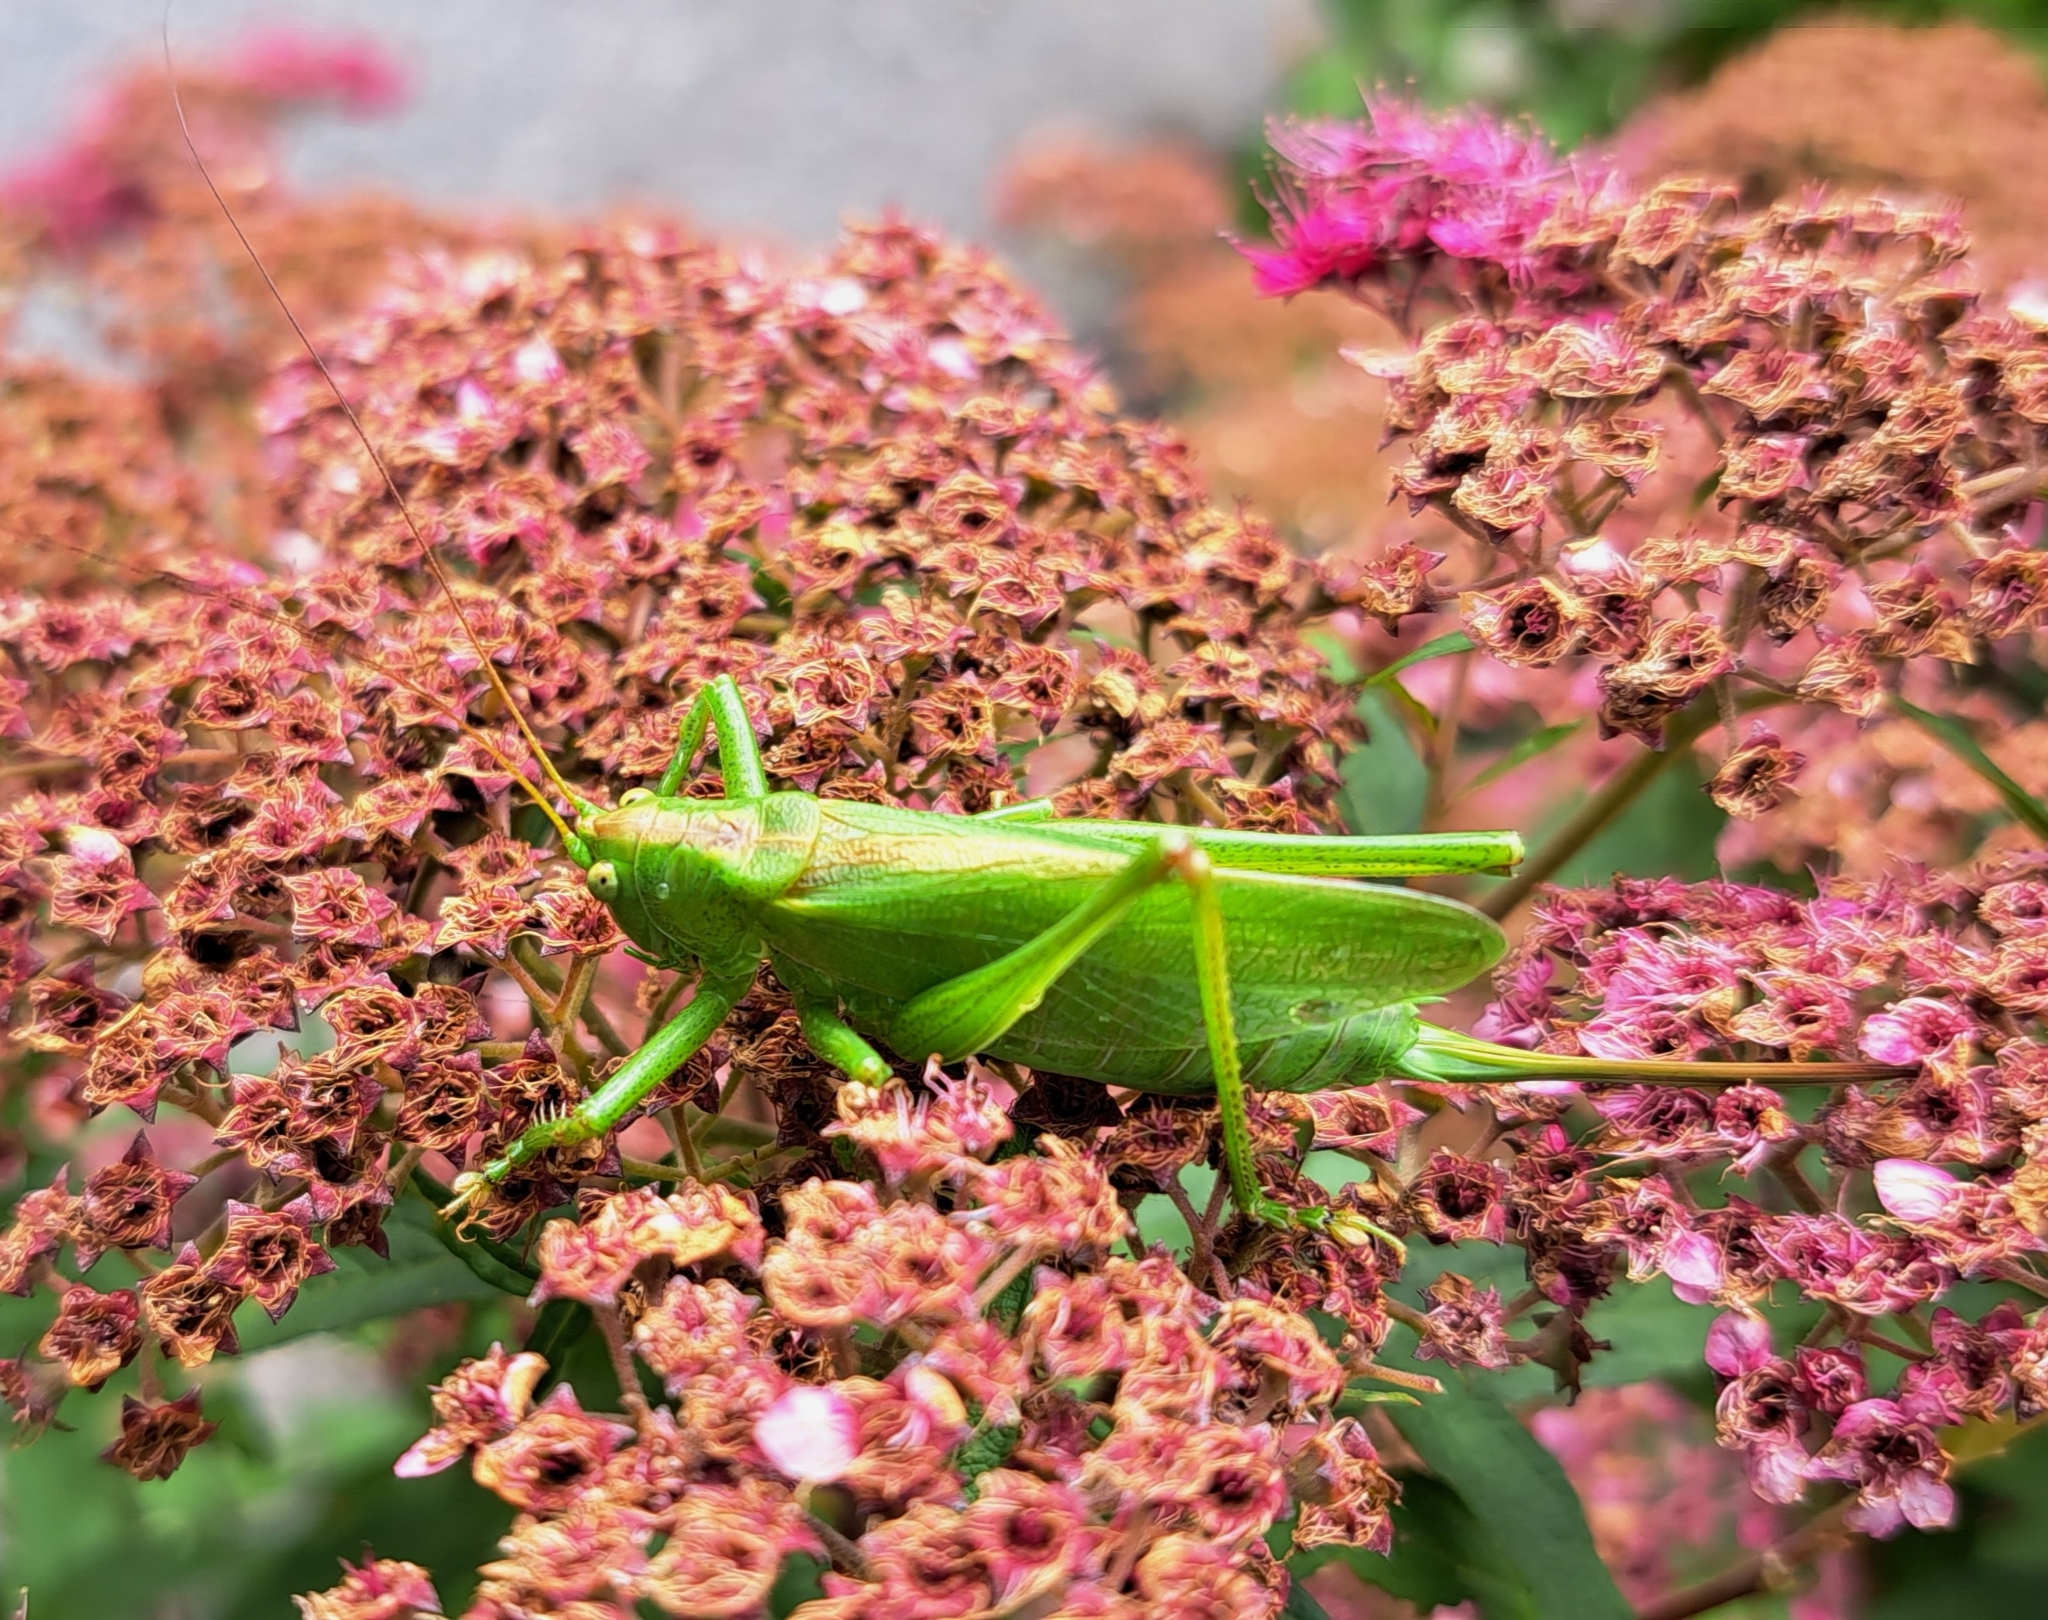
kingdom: Animalia
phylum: Arthropoda
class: Insecta
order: Orthoptera
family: Tettigoniidae
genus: Tettigonia
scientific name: Tettigonia cantans
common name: Upland green bush-cricket
